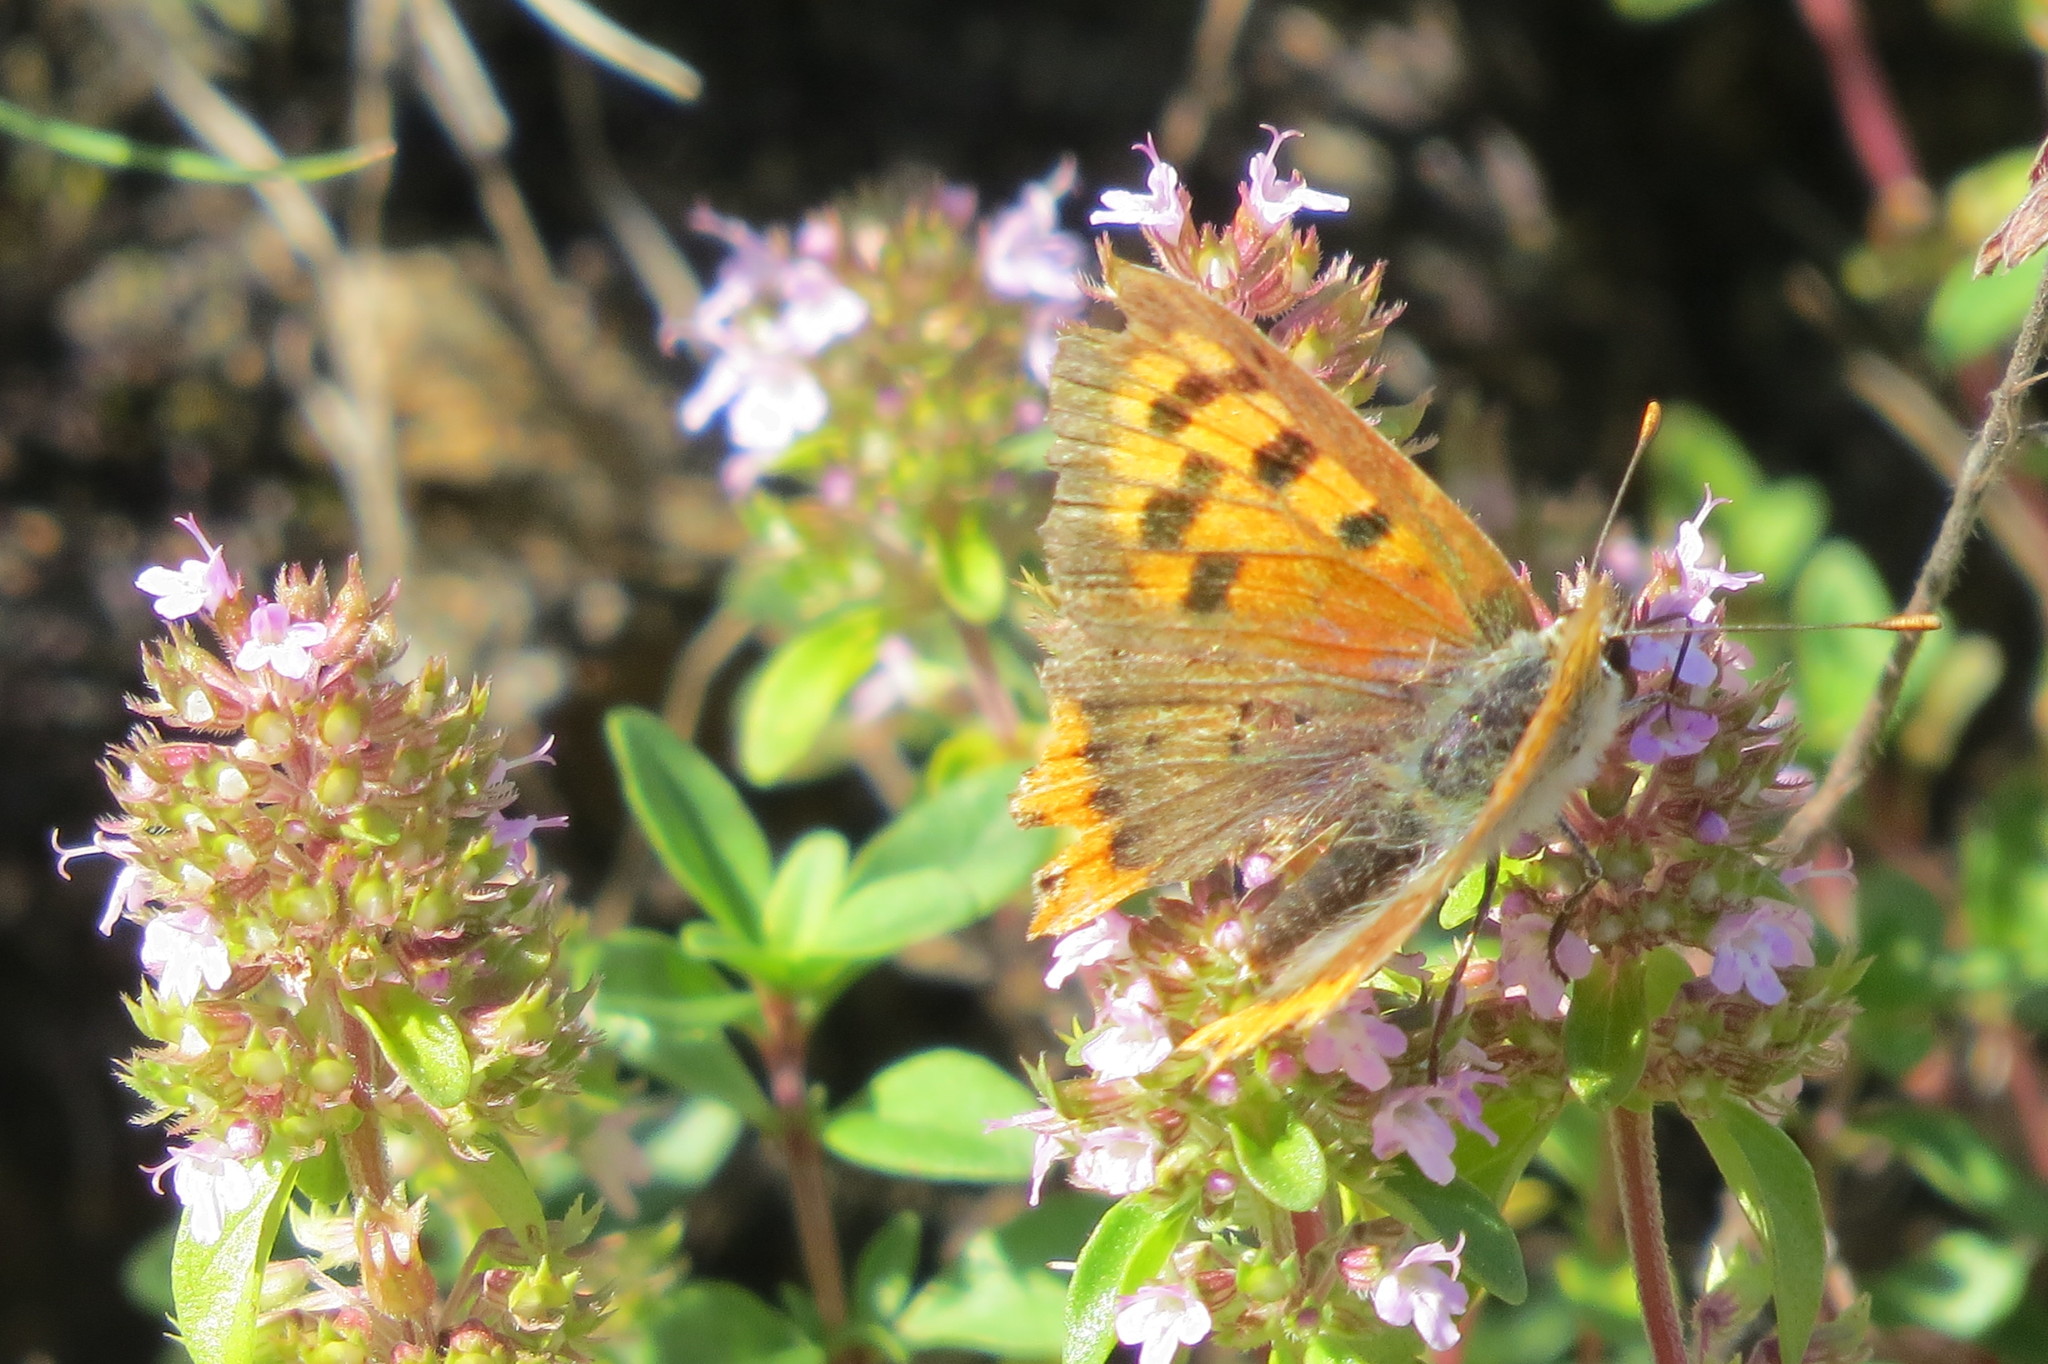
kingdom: Animalia
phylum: Arthropoda
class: Insecta
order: Lepidoptera
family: Lycaenidae
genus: Lycaena
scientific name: Lycaena phlaeas
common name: Small copper
